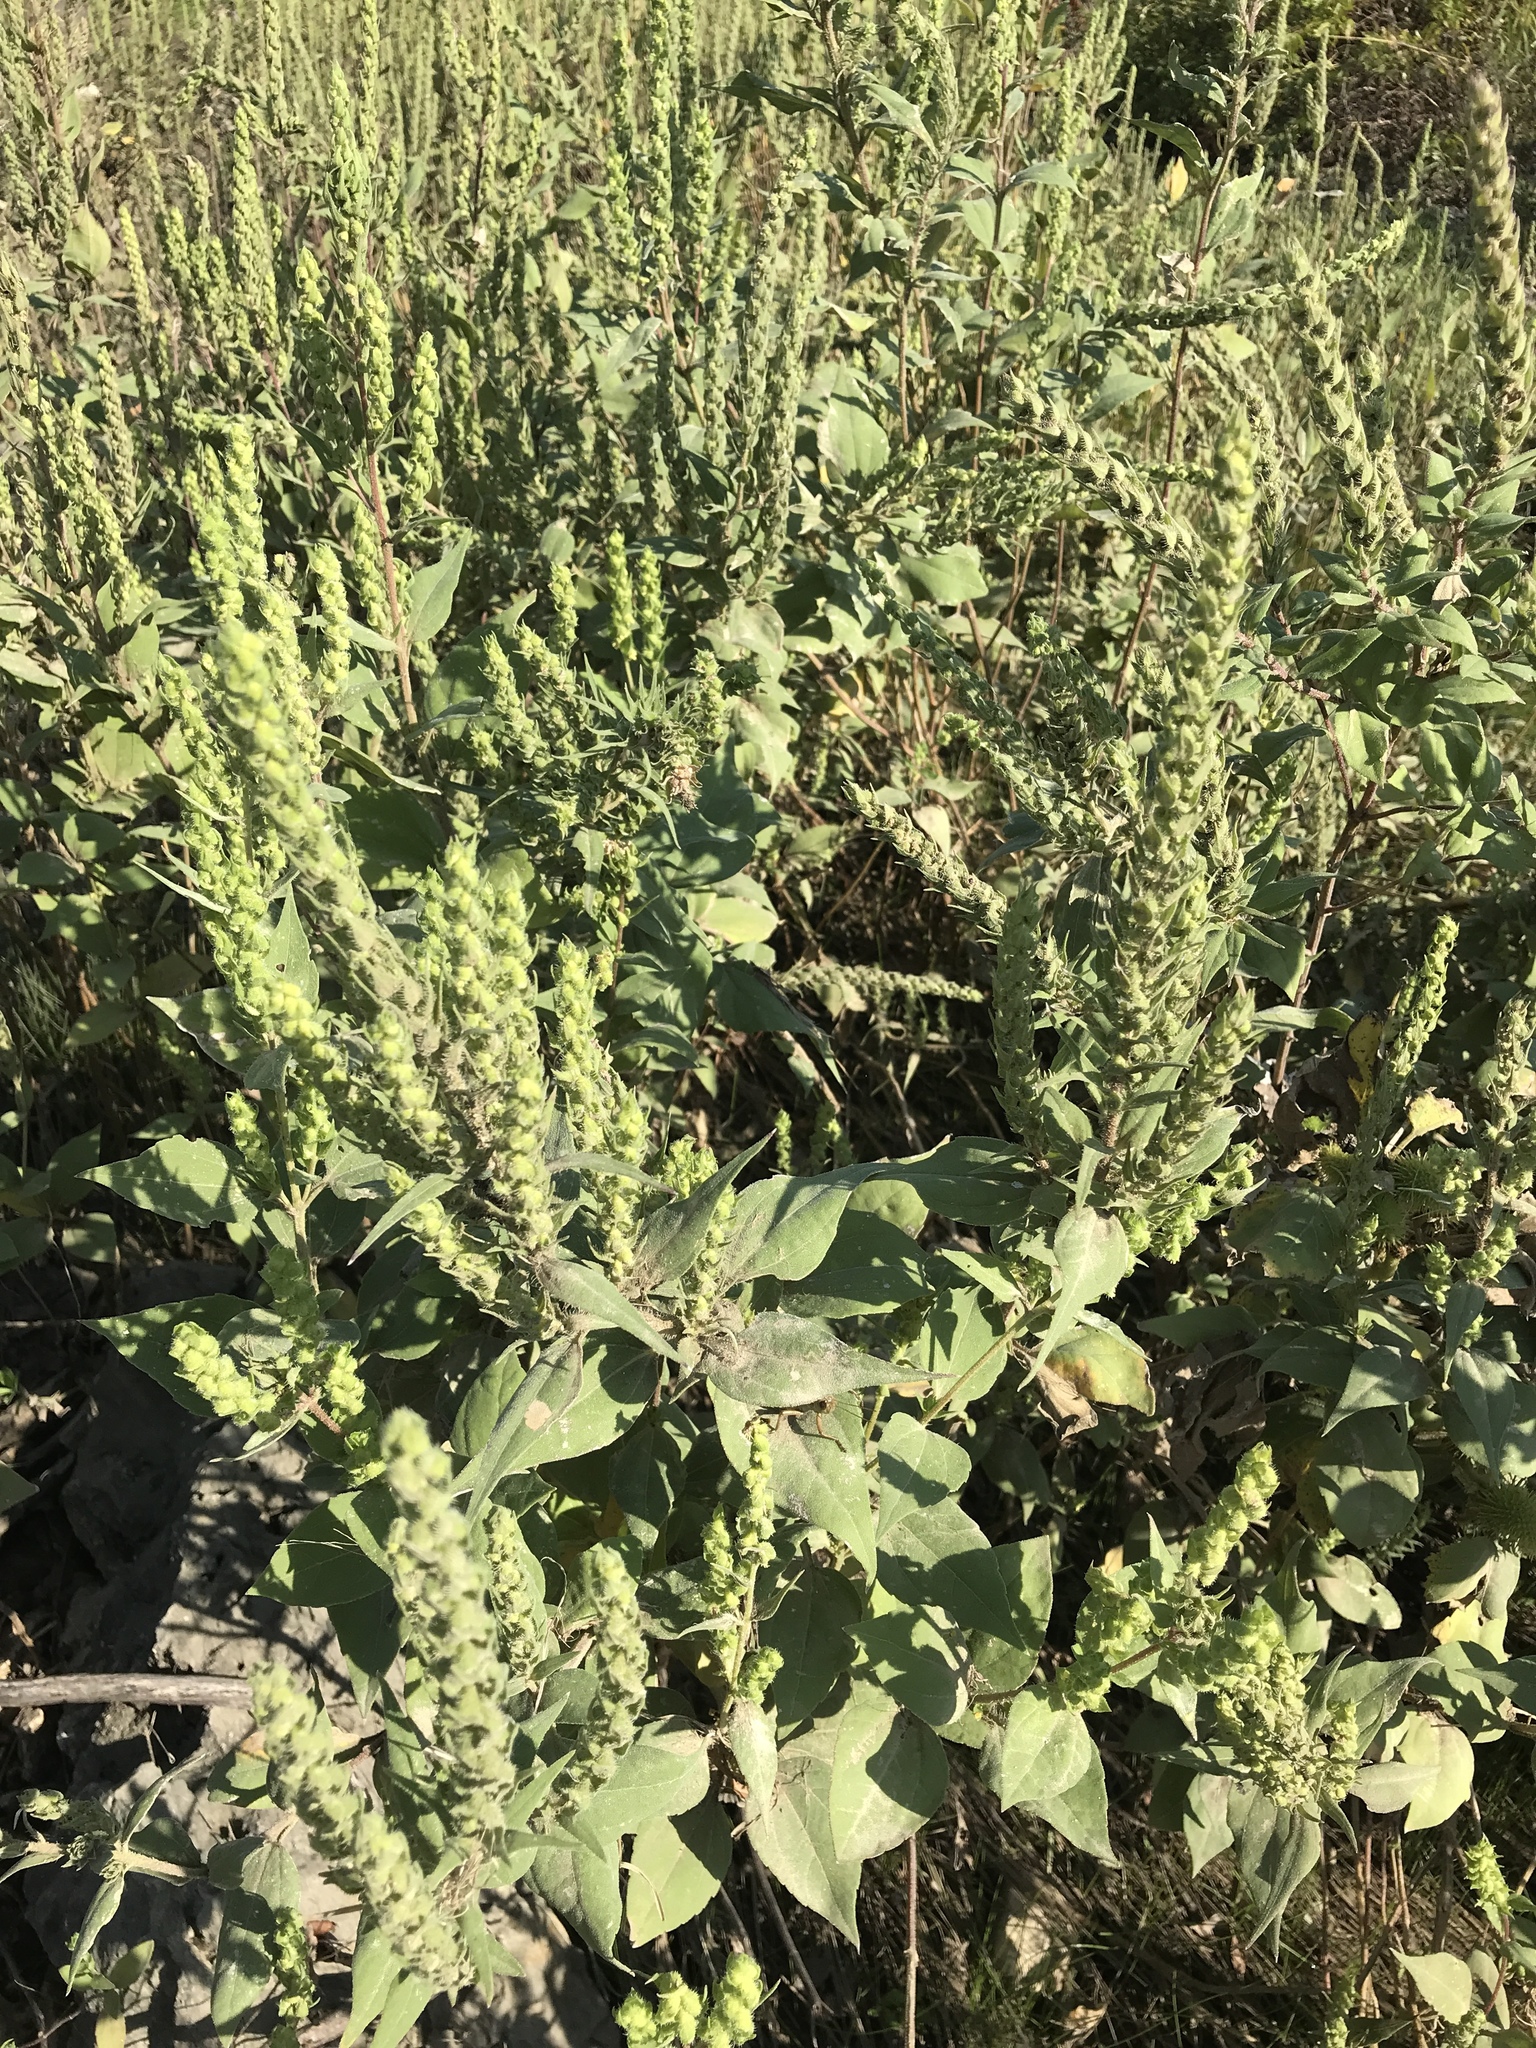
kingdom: Plantae
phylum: Tracheophyta
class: Magnoliopsida
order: Asterales
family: Asteraceae
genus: Iva
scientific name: Iva annua
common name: Marsh-elder
